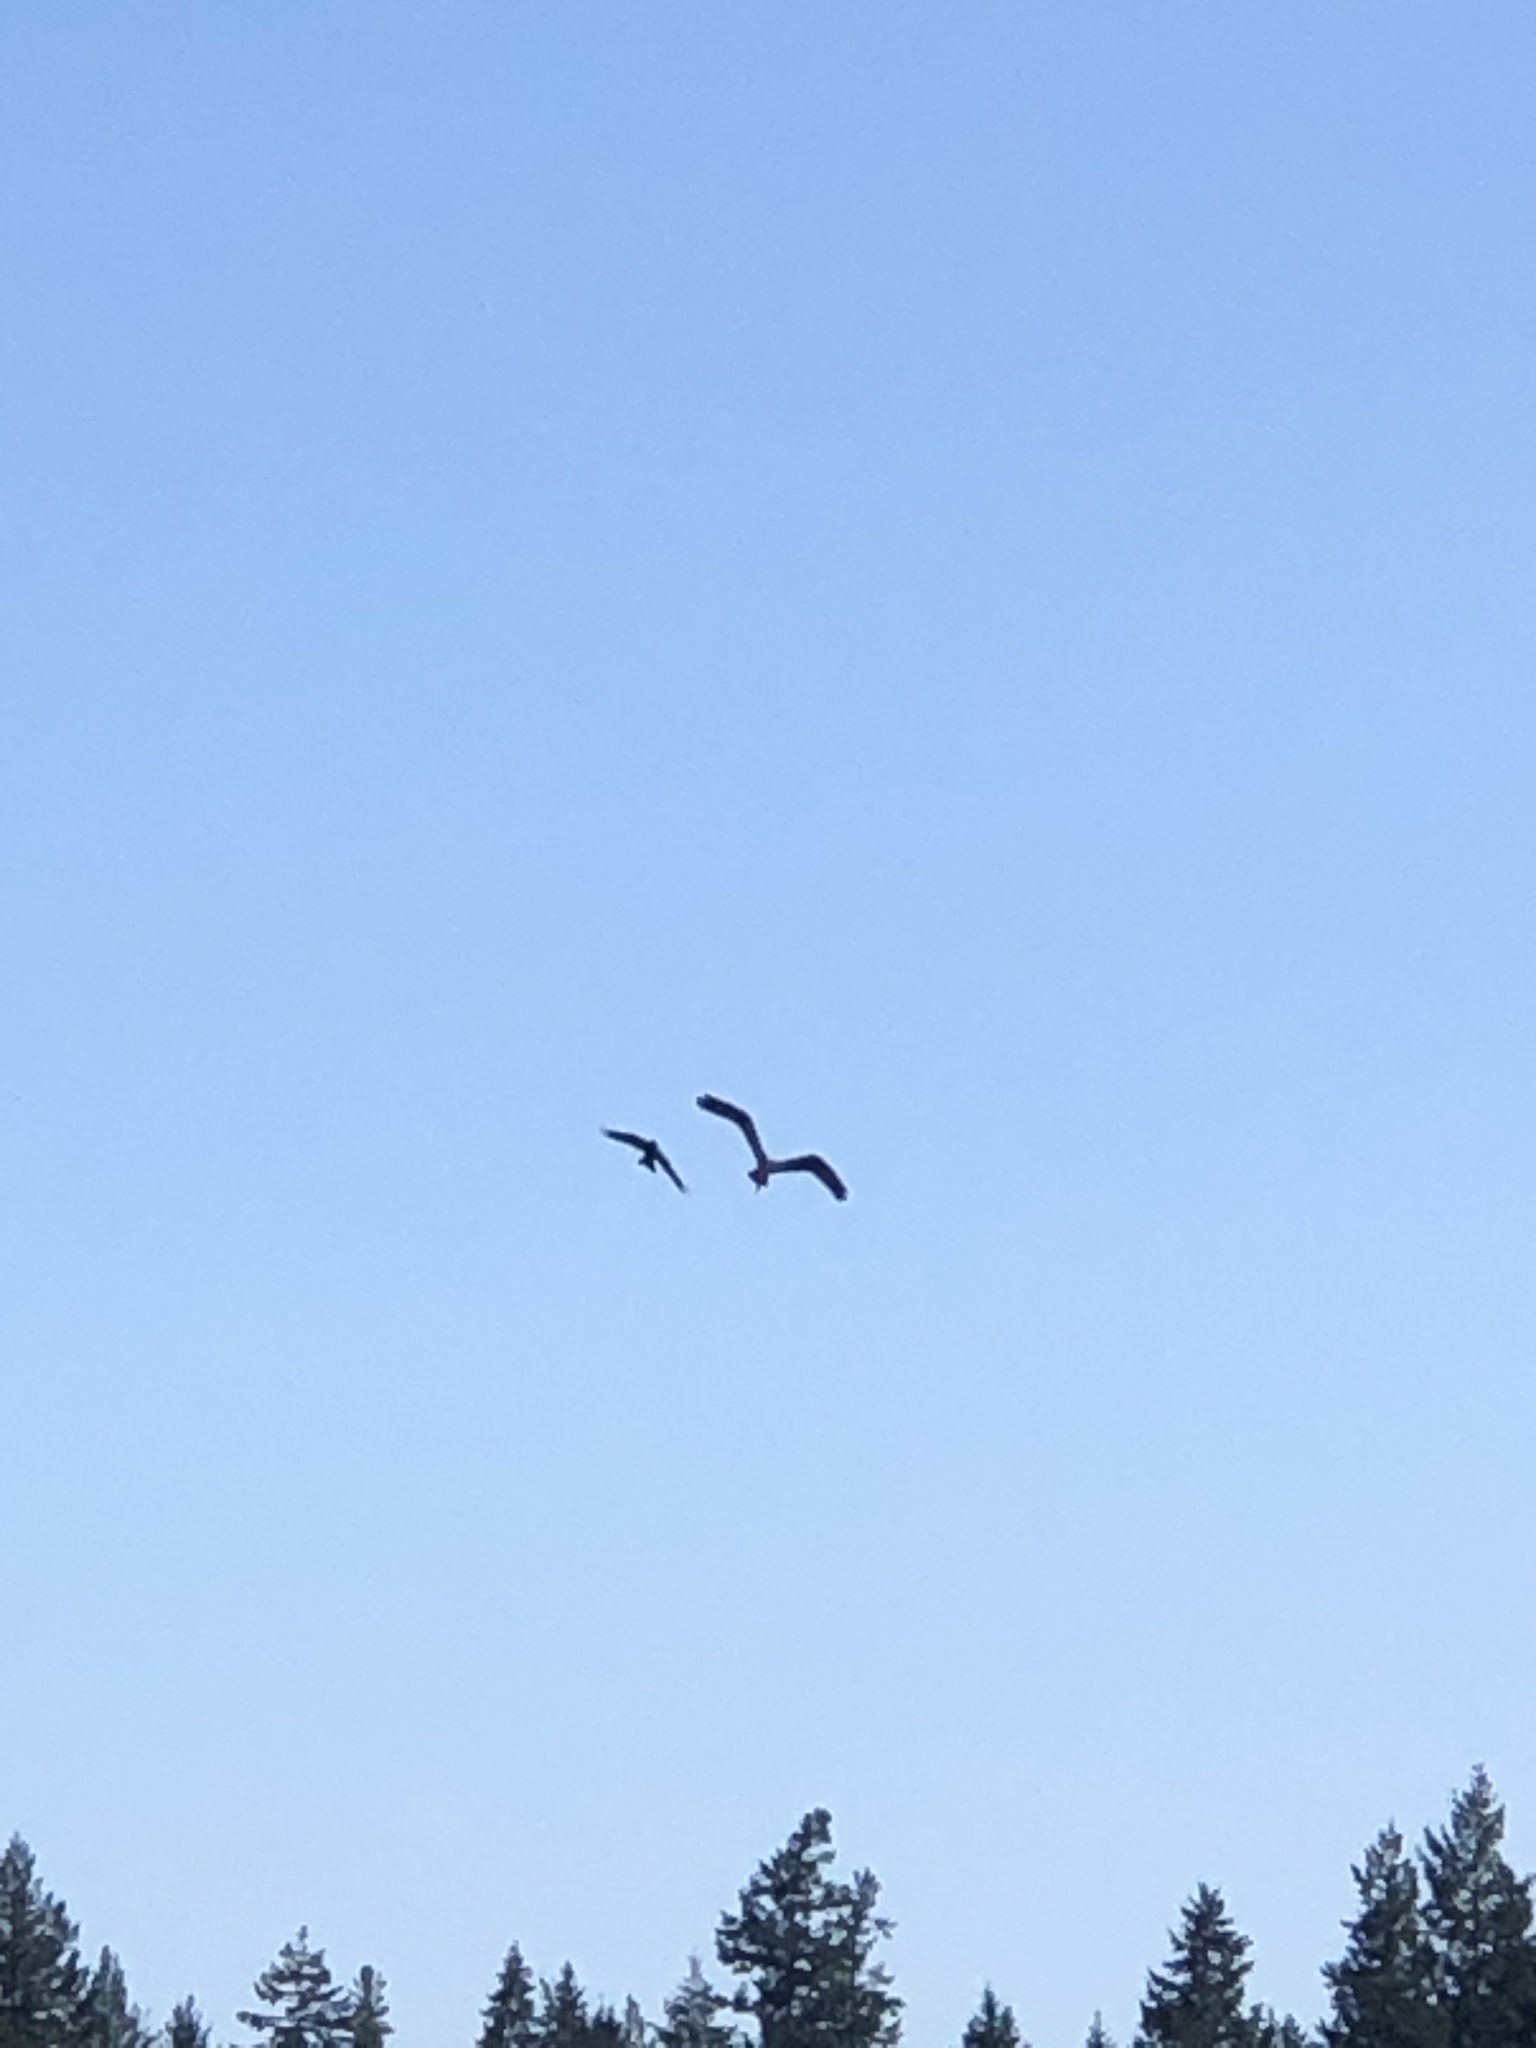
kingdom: Animalia
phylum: Chordata
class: Aves
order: Accipitriformes
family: Pandionidae
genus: Pandion
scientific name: Pandion haliaetus
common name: Osprey
